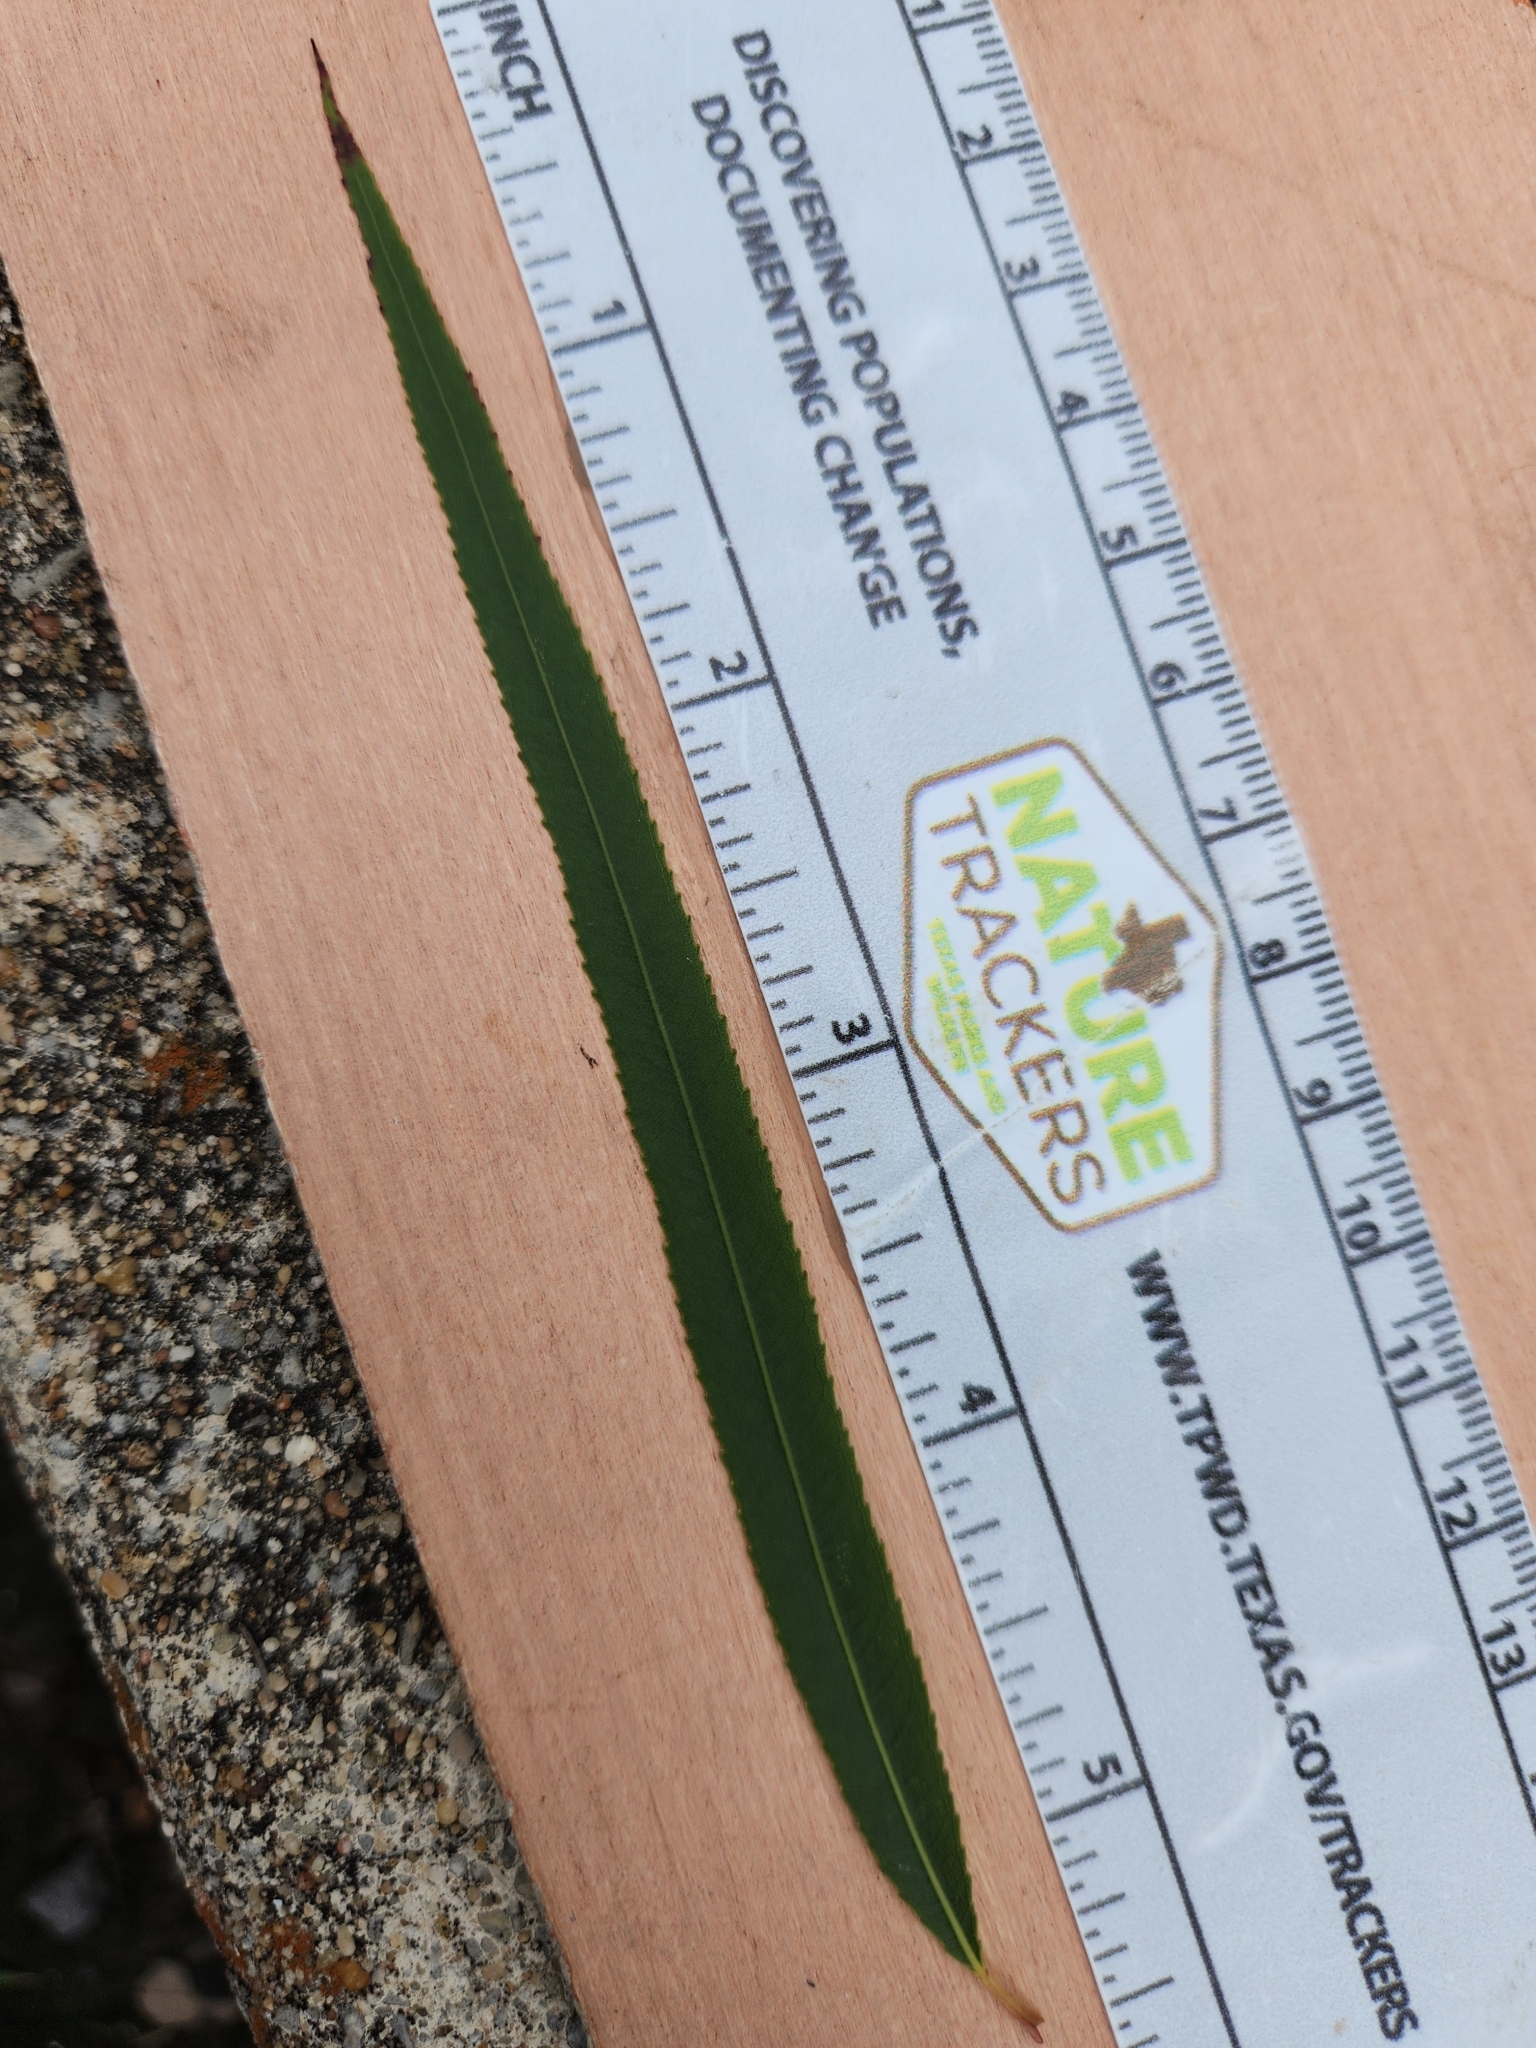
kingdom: Plantae
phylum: Tracheophyta
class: Magnoliopsida
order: Malpighiales
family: Salicaceae
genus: Salix
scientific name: Salix nigra
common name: Black willow
